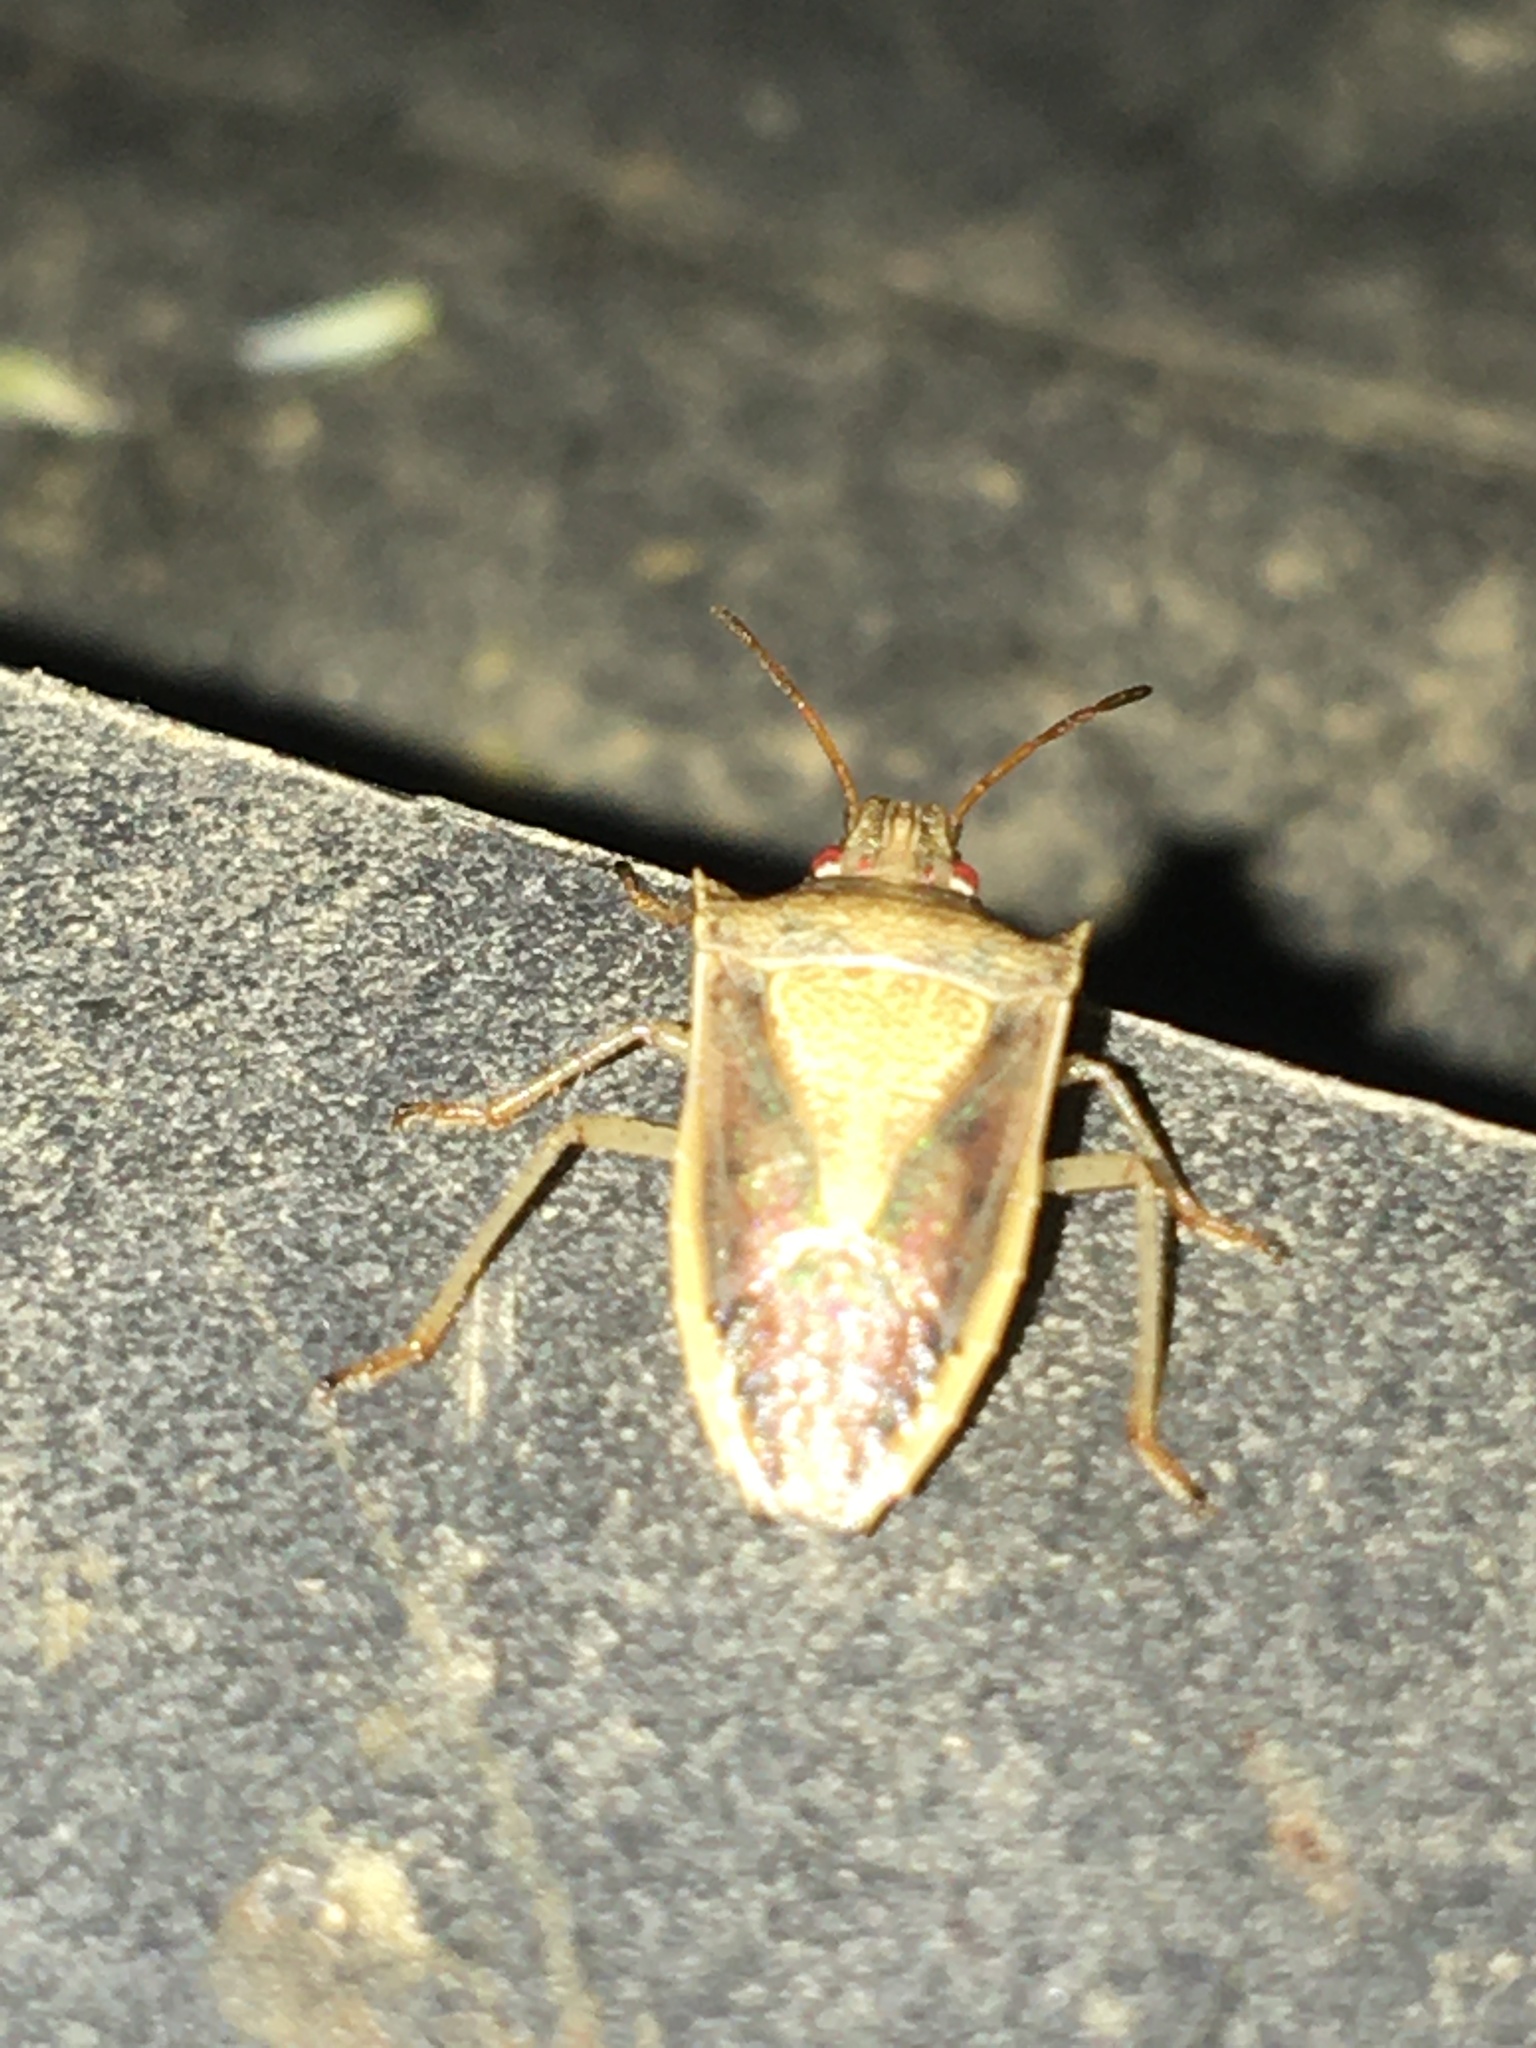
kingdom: Animalia
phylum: Arthropoda
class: Insecta
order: Hemiptera
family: Pentatomidae
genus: Oebalus
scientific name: Oebalus pugnax
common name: Rice stink bug
